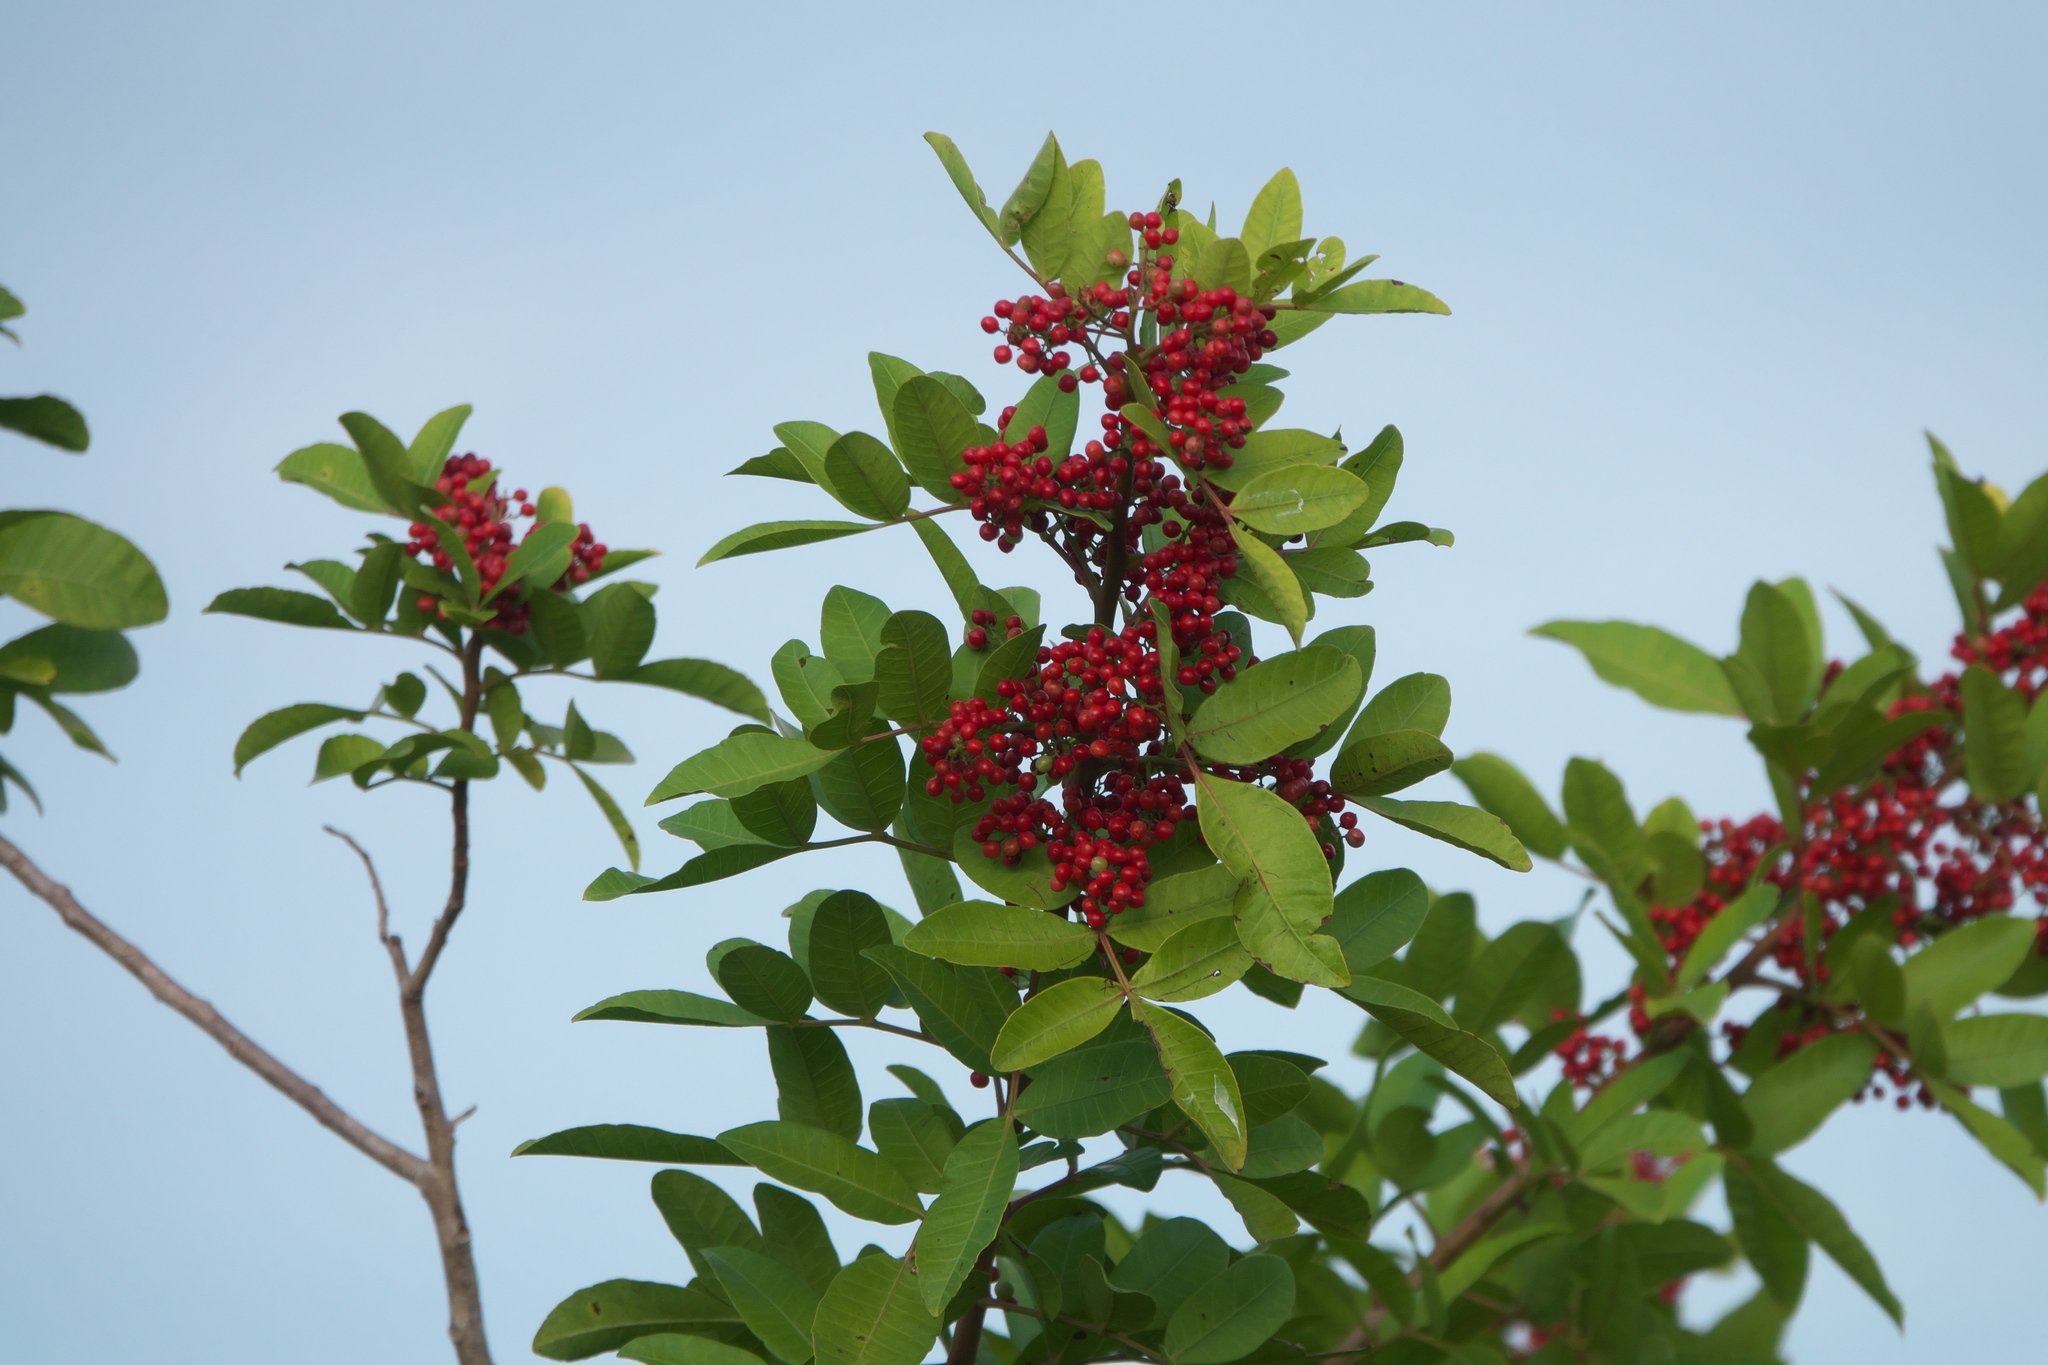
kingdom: Plantae
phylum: Tracheophyta
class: Magnoliopsida
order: Sapindales
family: Anacardiaceae
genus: Schinus
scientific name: Schinus terebinthifolia
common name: Brazilian peppertree
